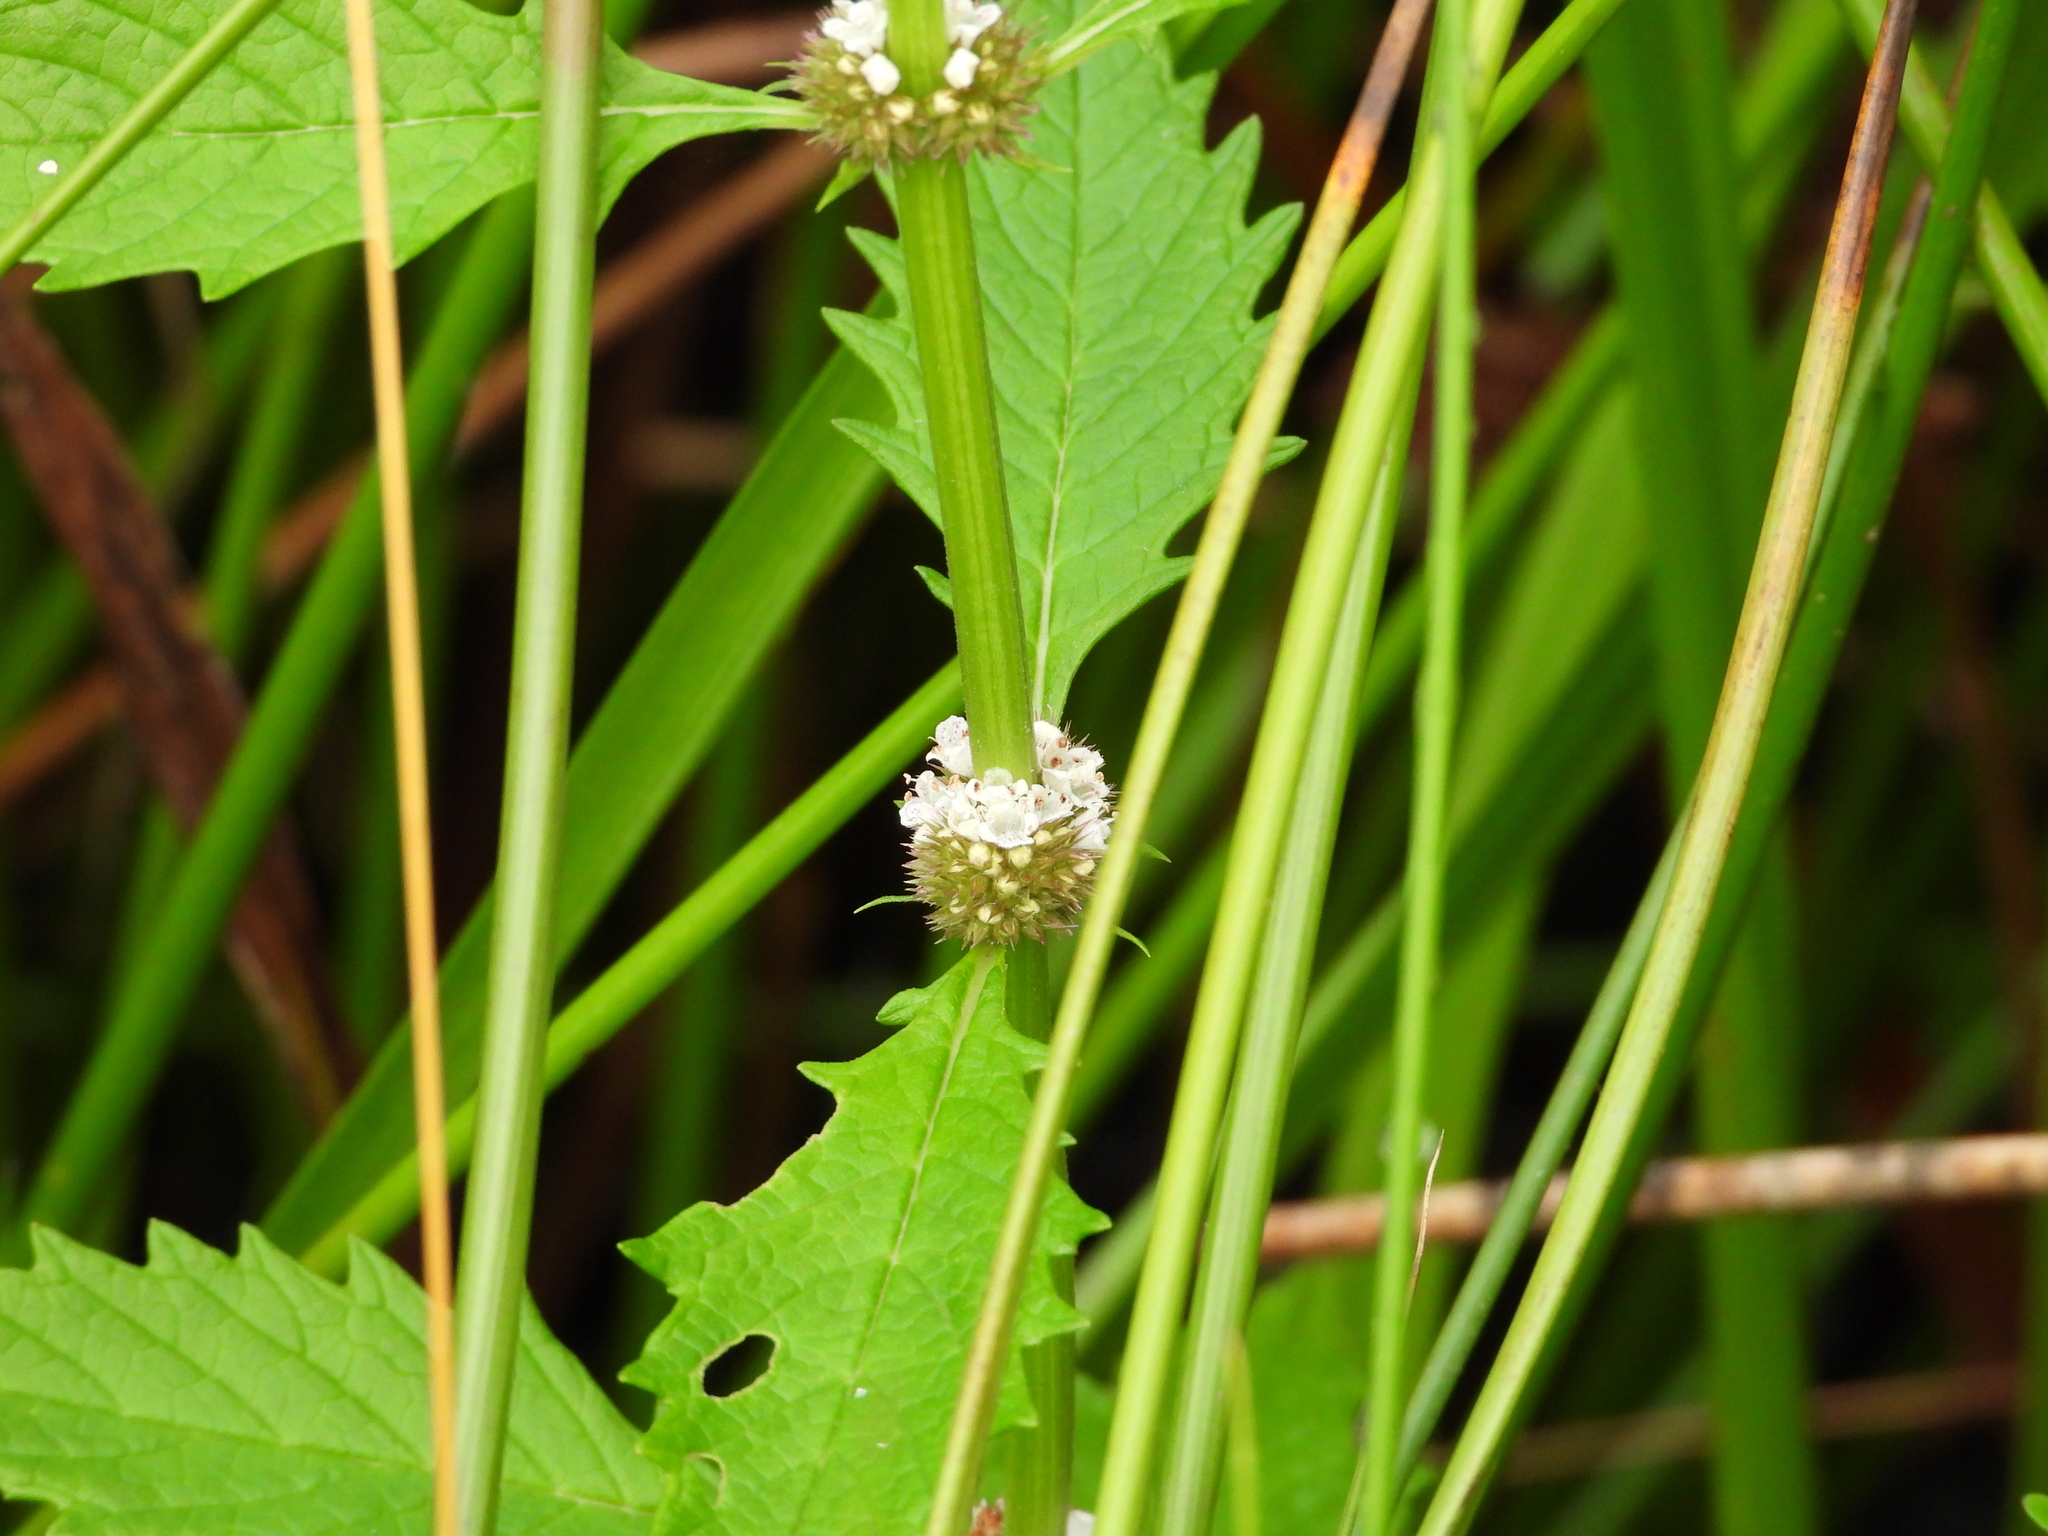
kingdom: Plantae
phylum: Tracheophyta
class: Magnoliopsida
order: Lamiales
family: Lamiaceae
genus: Lycopus
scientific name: Lycopus europaeus
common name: European bugleweed
